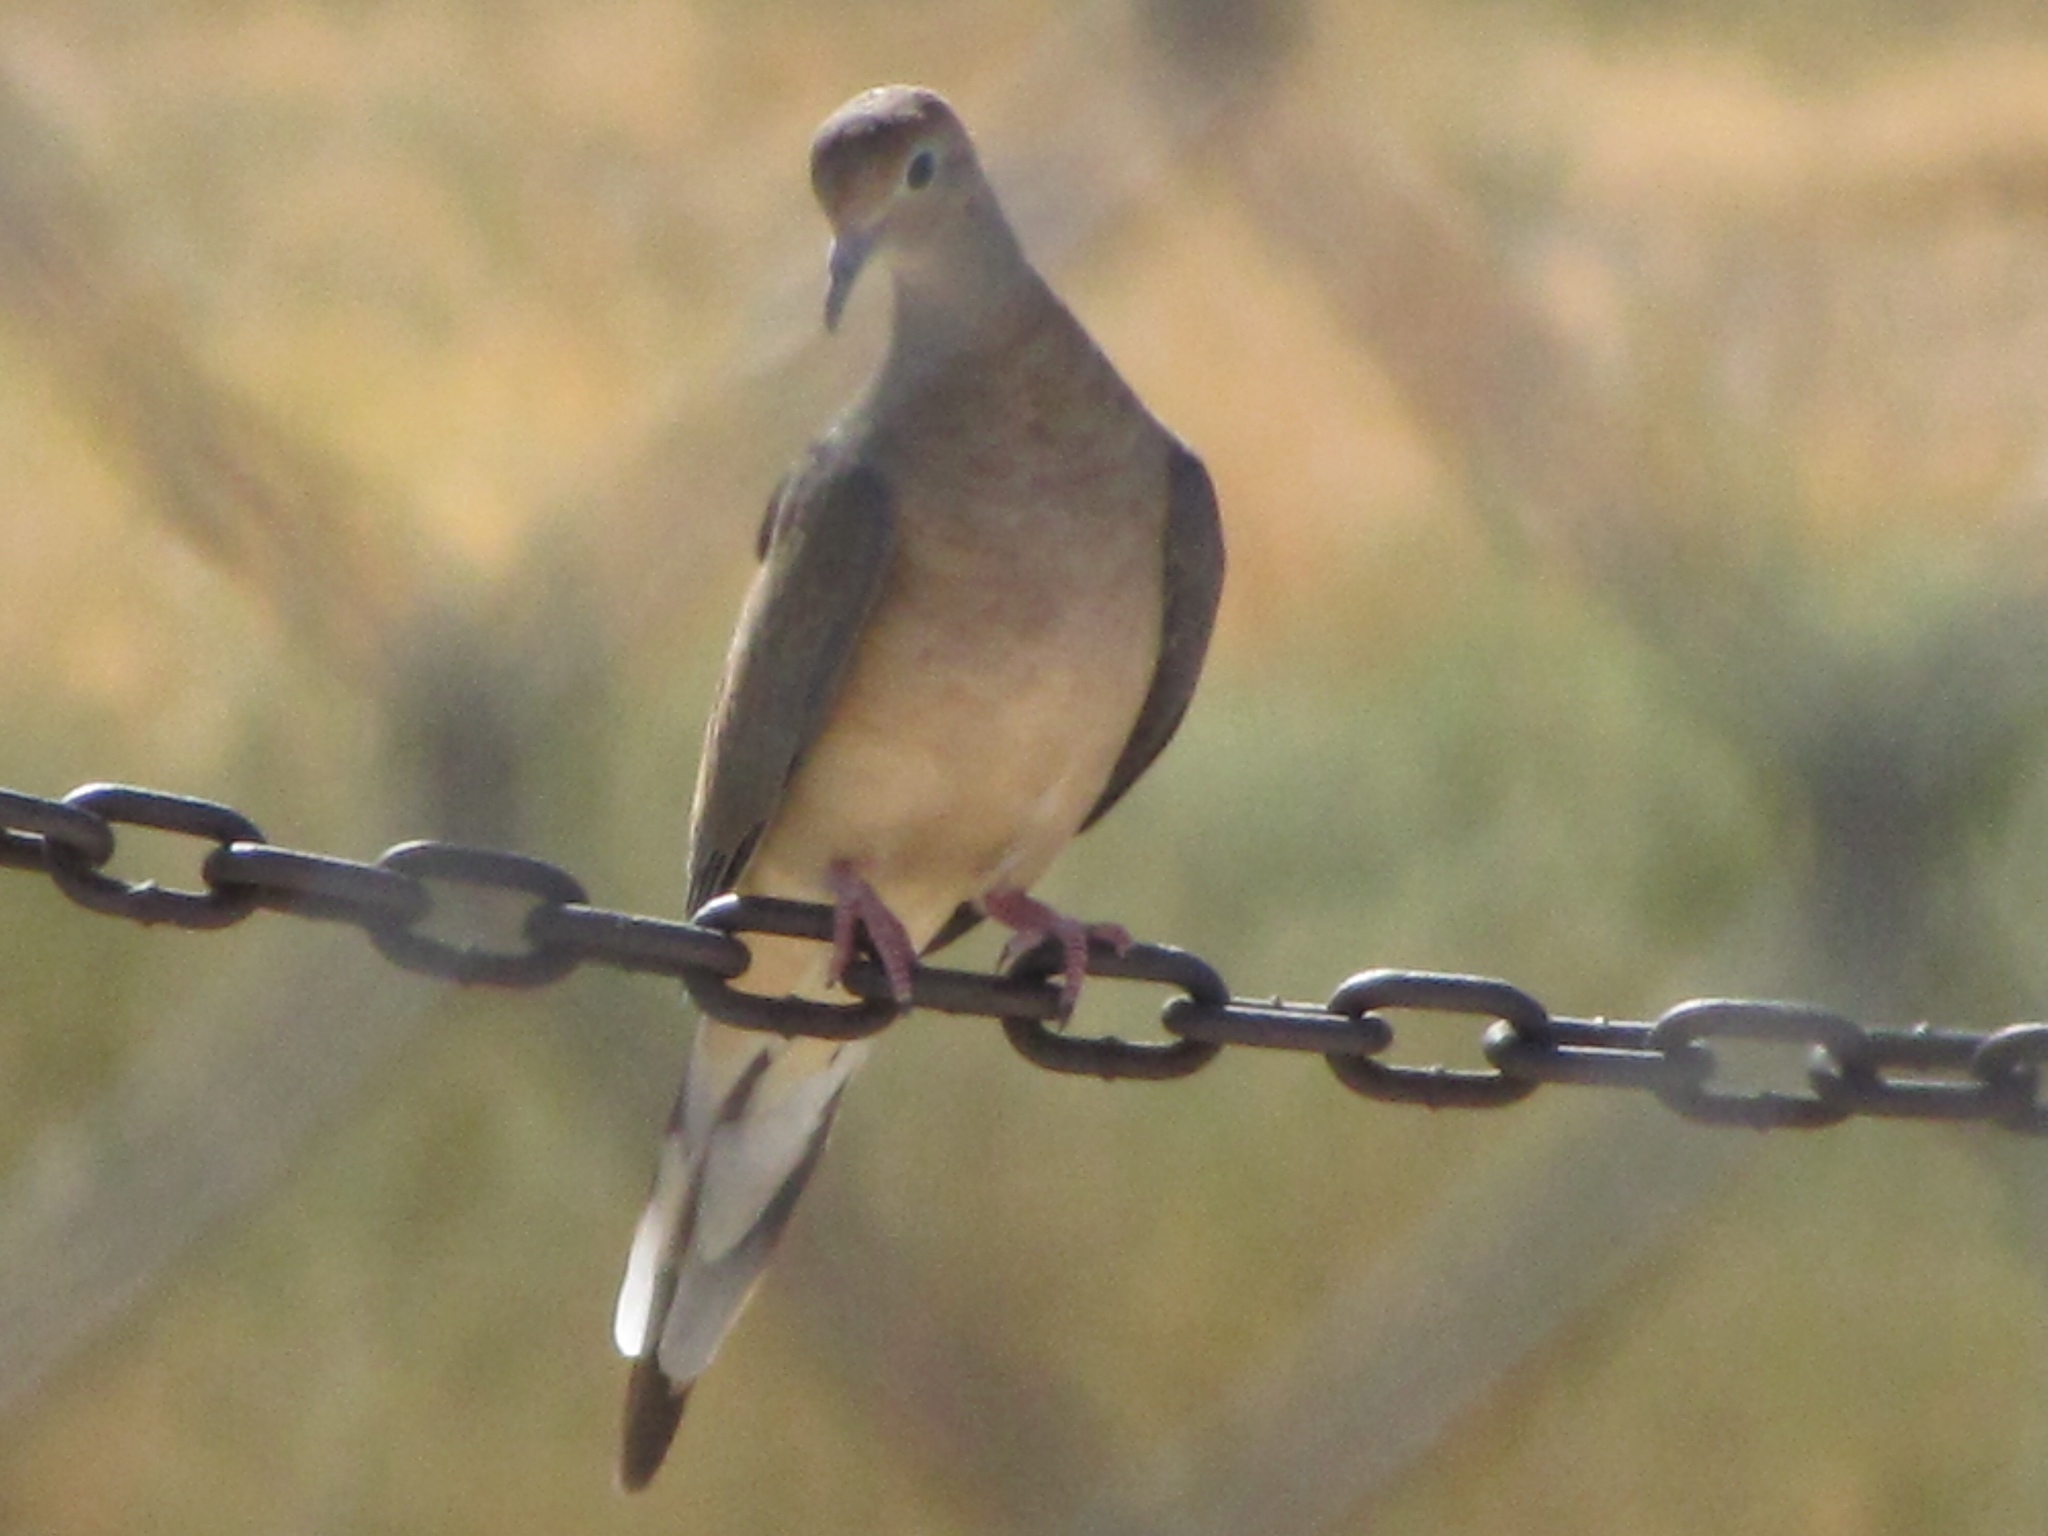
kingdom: Animalia
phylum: Chordata
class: Aves
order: Columbiformes
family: Columbidae
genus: Zenaida
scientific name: Zenaida macroura
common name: Mourning dove
